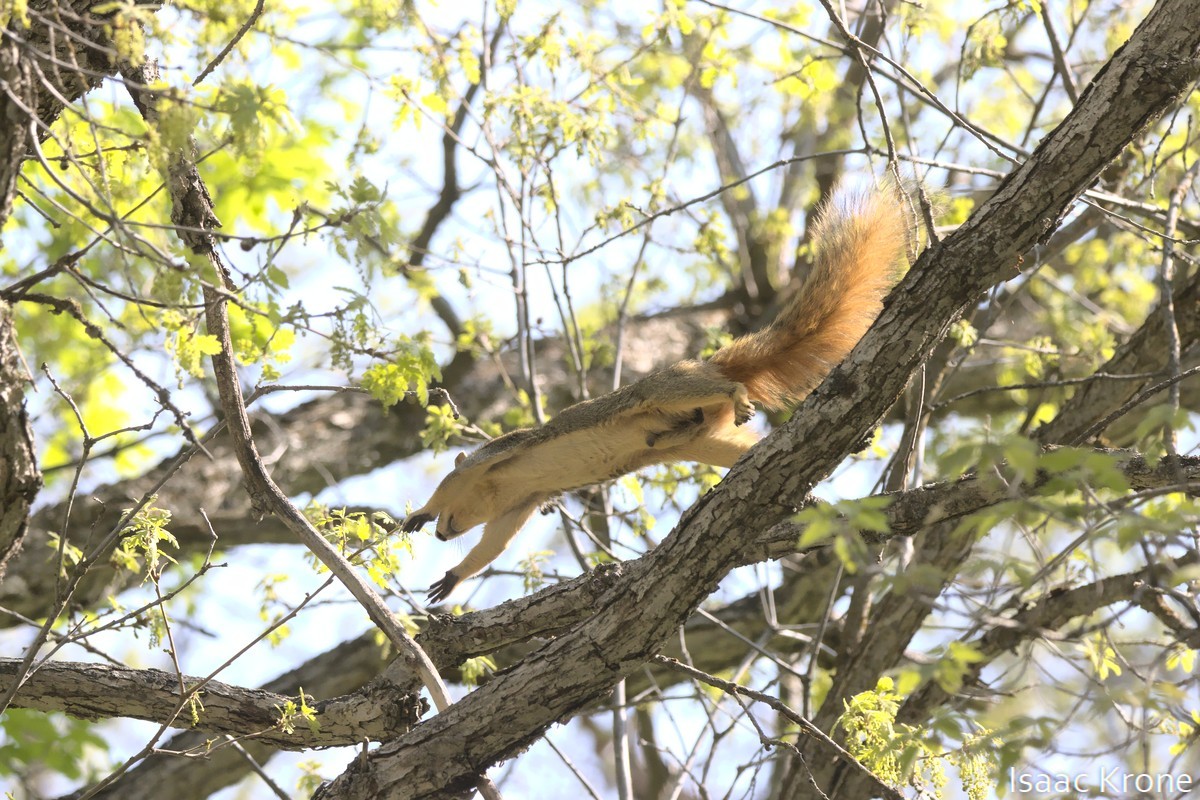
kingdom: Animalia
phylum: Chordata
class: Mammalia
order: Rodentia
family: Sciuridae
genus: Sciurus
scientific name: Sciurus niger
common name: Fox squirrel
